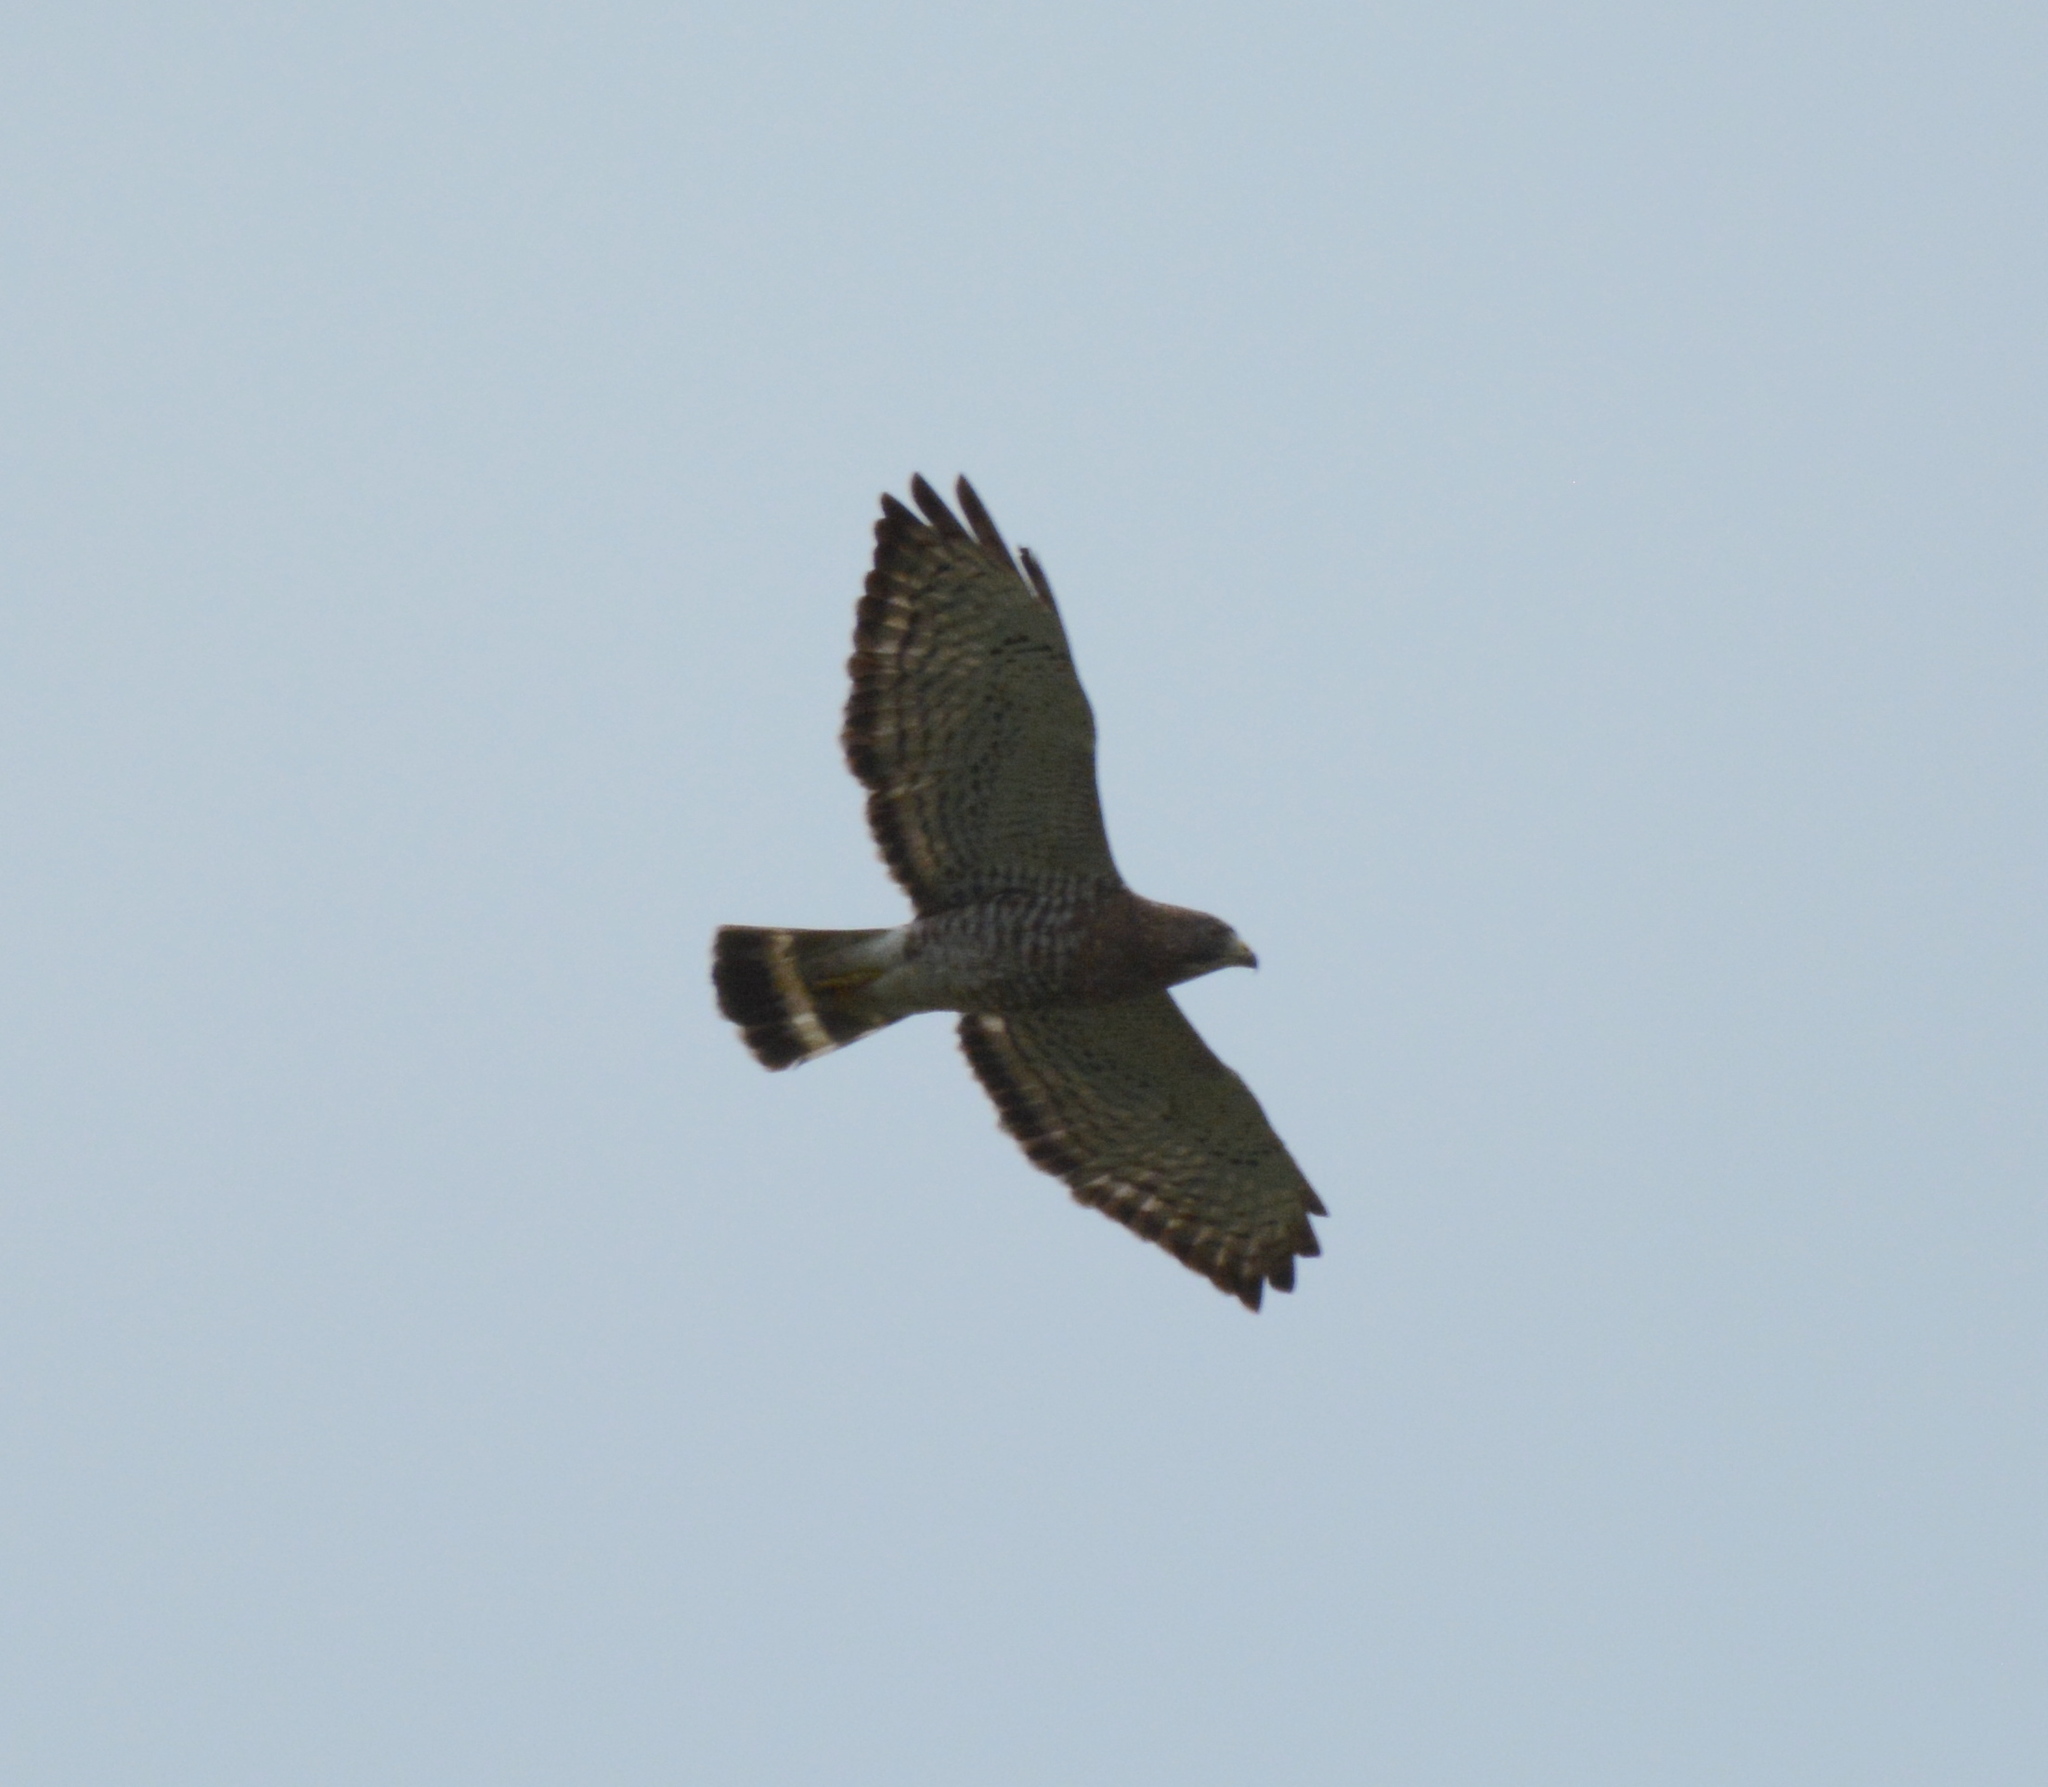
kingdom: Animalia
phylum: Chordata
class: Aves
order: Accipitriformes
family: Accipitridae
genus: Buteo
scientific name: Buteo platypterus
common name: Broad-winged hawk
